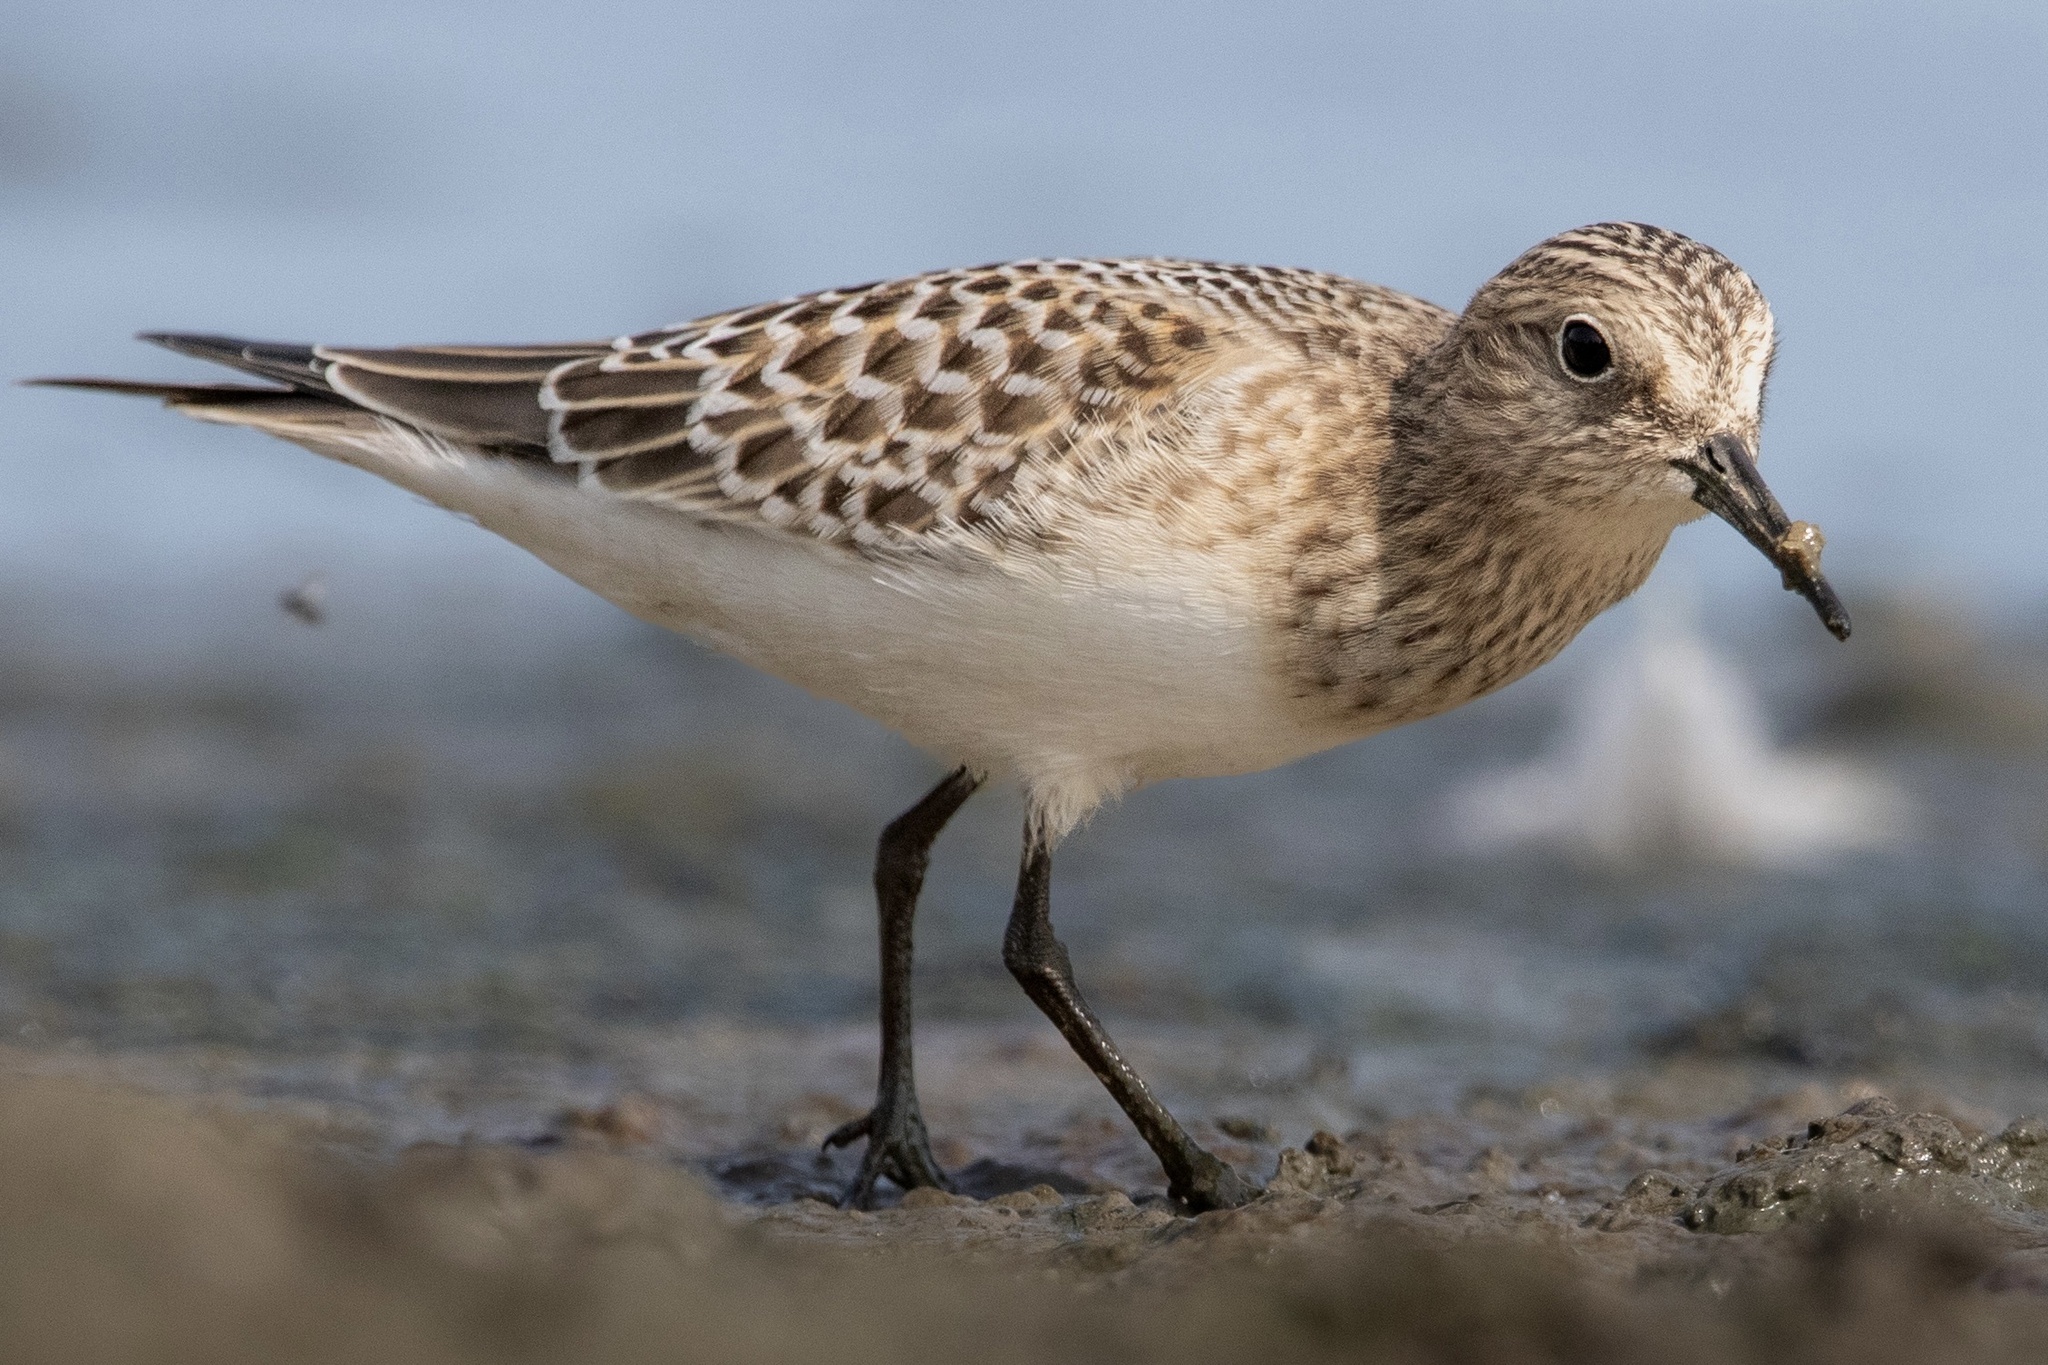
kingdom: Animalia
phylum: Chordata
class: Aves
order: Charadriiformes
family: Scolopacidae
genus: Calidris
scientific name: Calidris bairdii
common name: Baird's sandpiper
